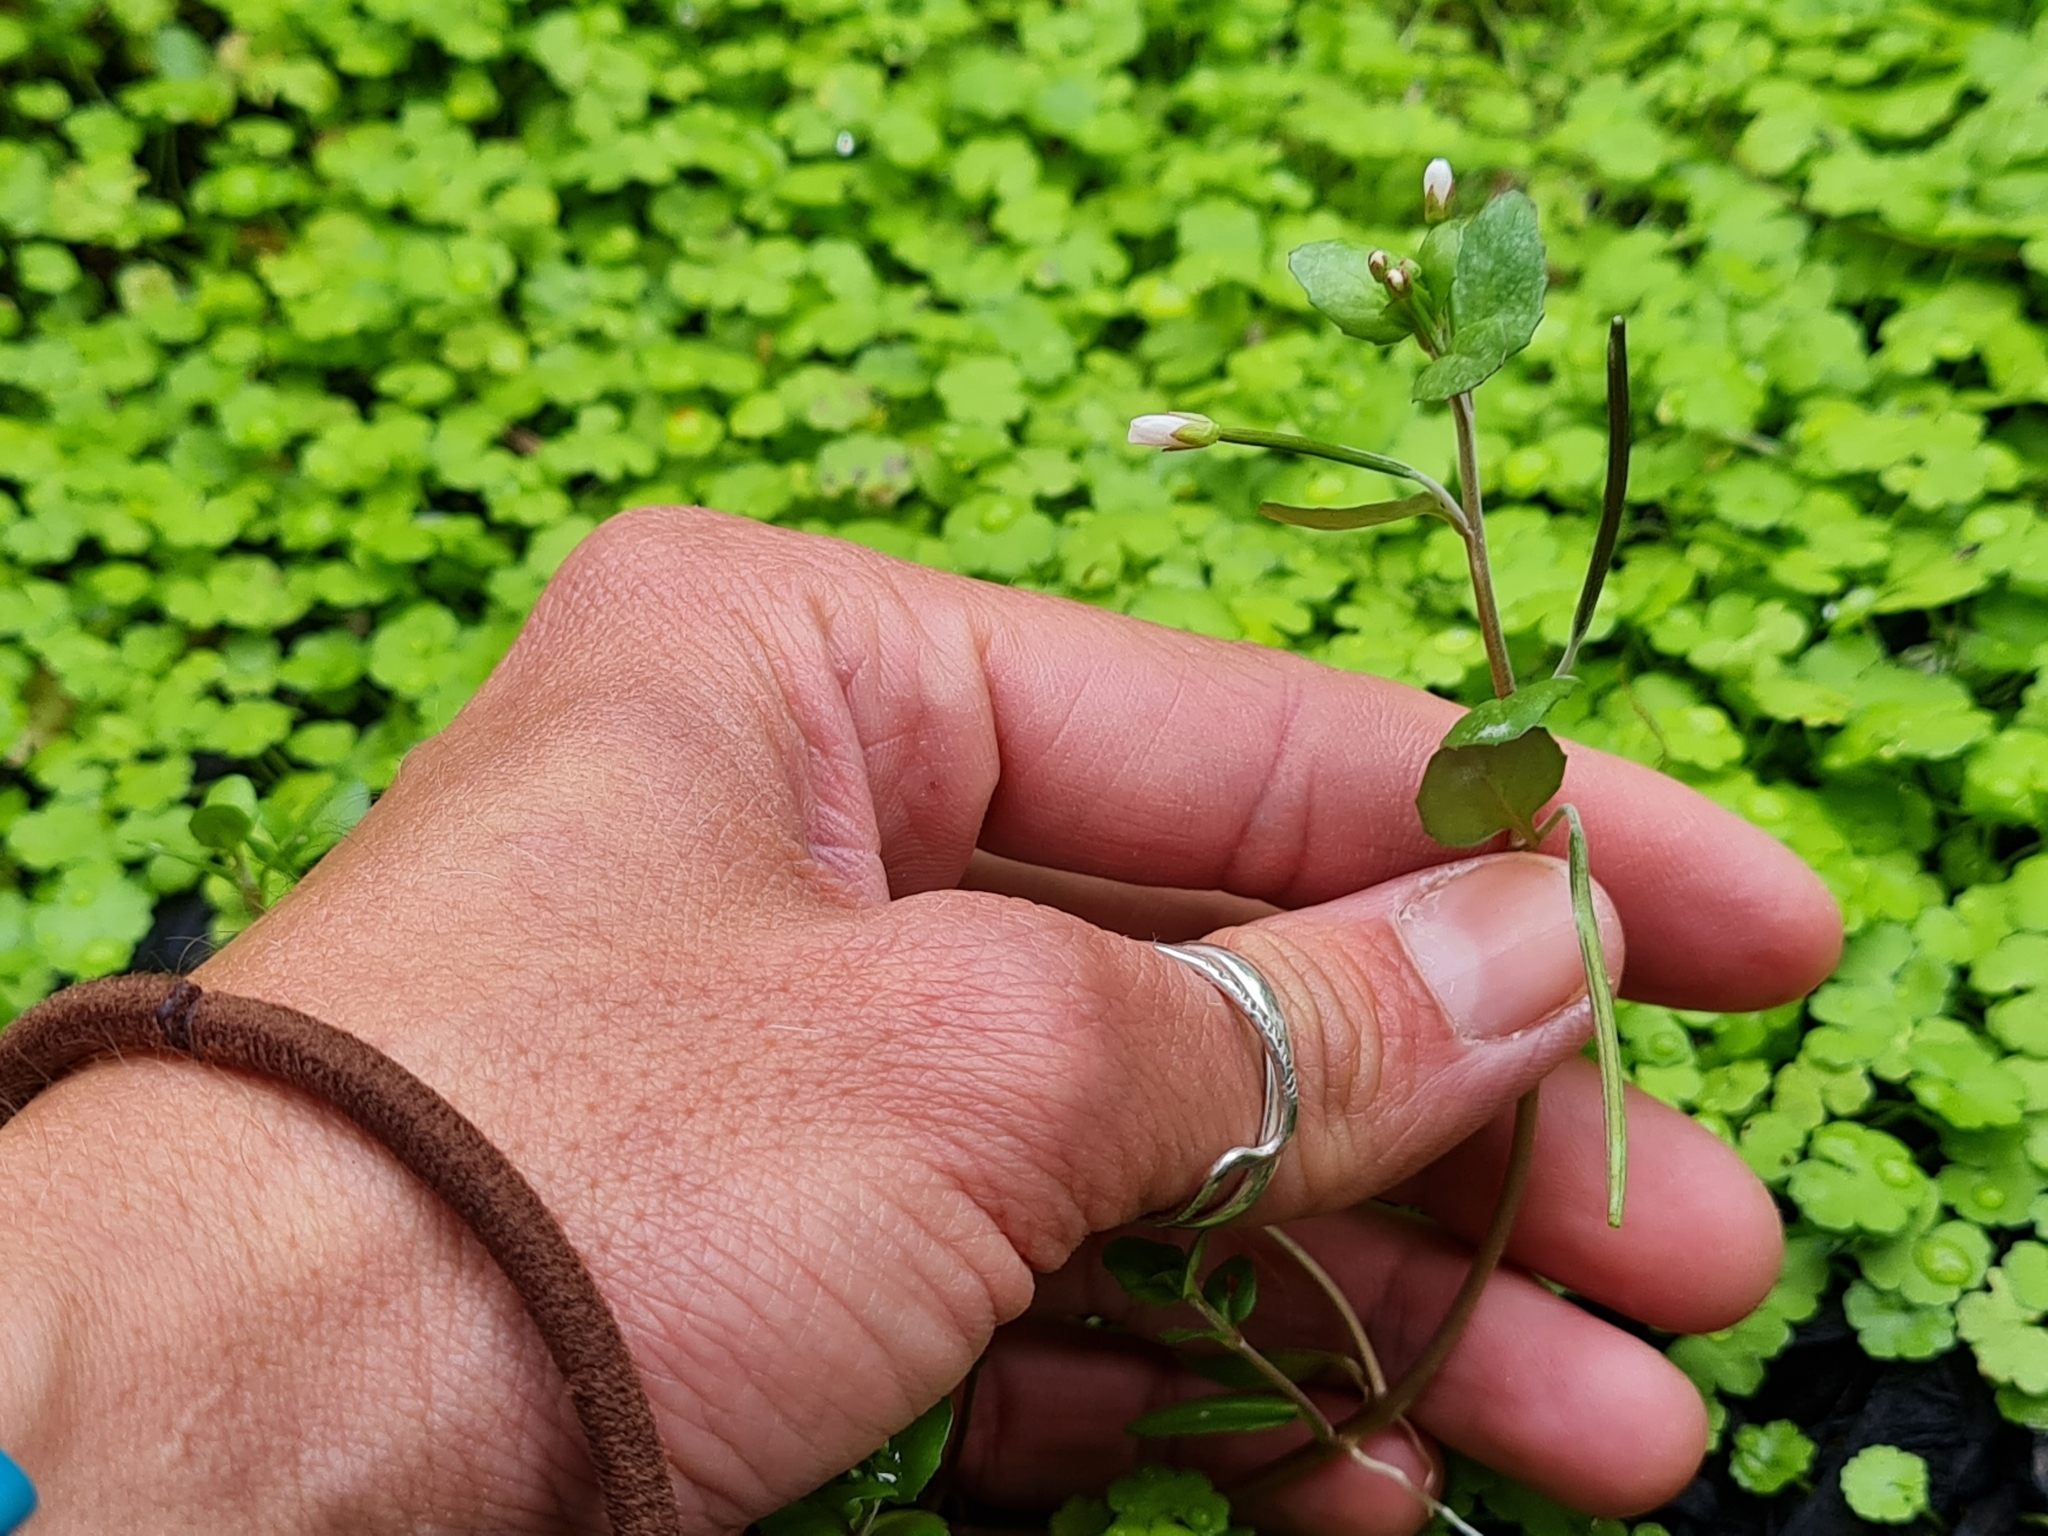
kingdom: Plantae
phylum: Tracheophyta
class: Magnoliopsida
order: Myrtales
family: Onagraceae
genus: Epilobium
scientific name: Epilobium insulare
